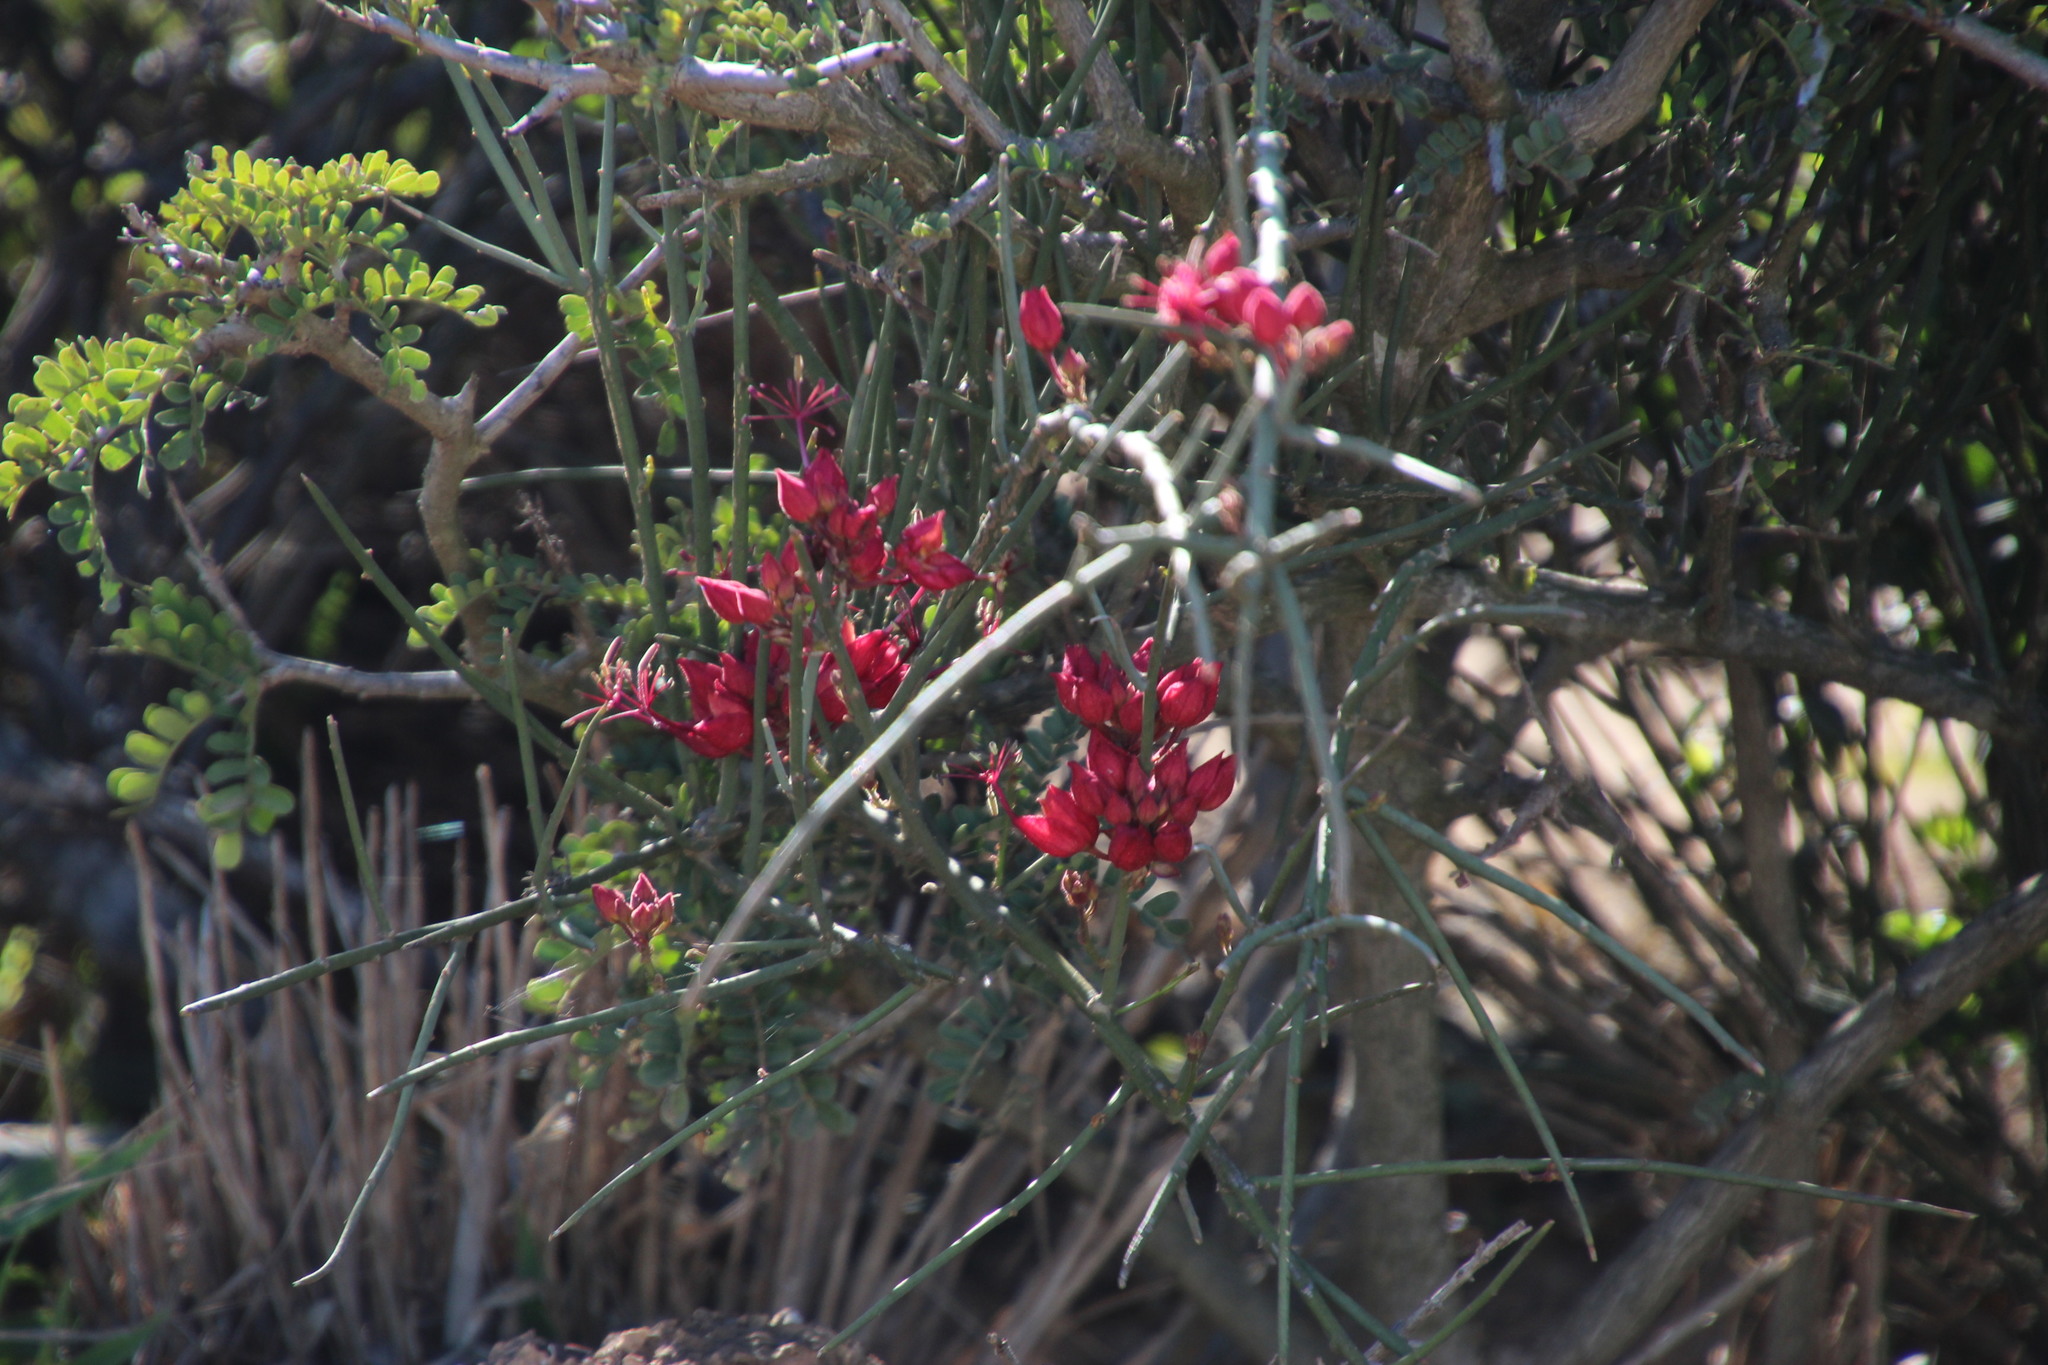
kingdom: Plantae
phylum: Tracheophyta
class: Magnoliopsida
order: Brassicales
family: Capparaceae
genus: Cadaba
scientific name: Cadaba aphylla
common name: Black storm
